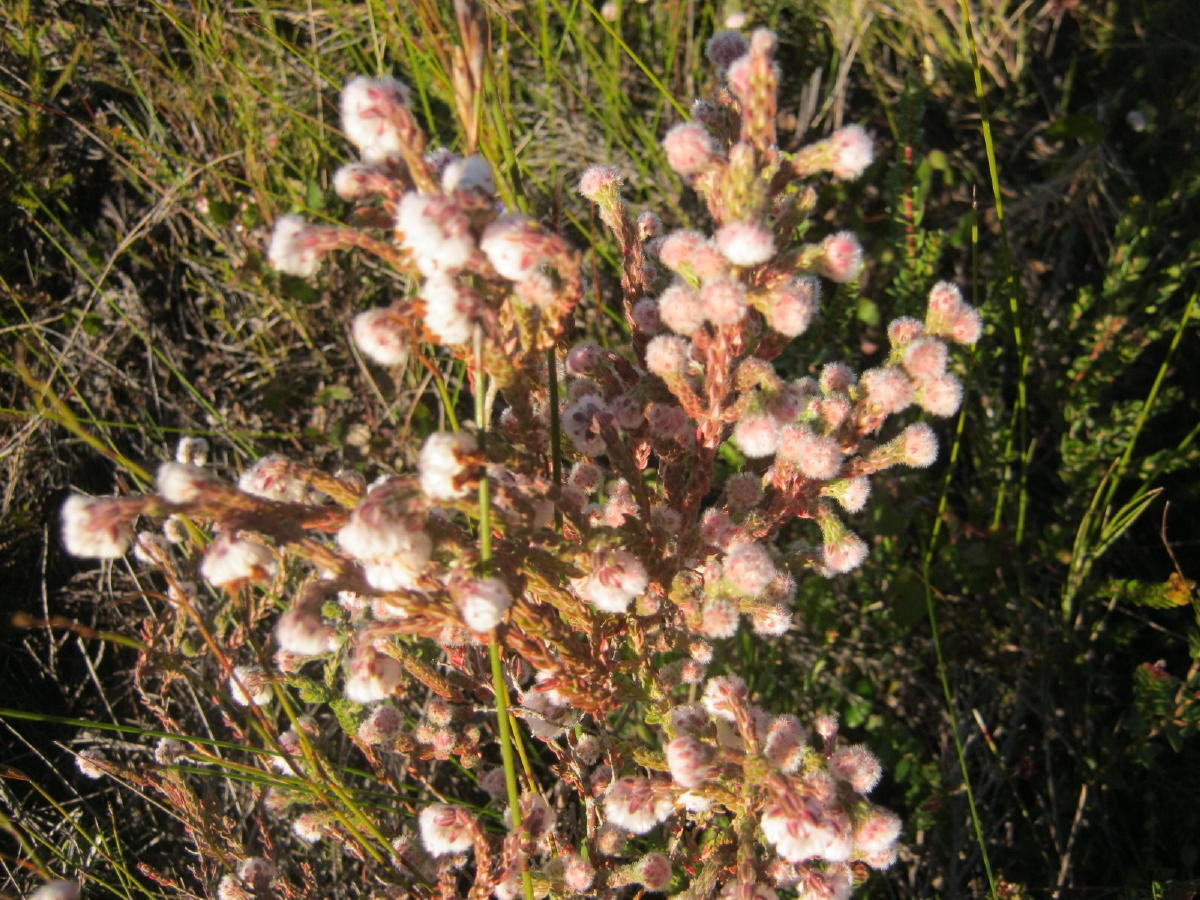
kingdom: Plantae
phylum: Tracheophyta
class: Magnoliopsida
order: Ericales
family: Ericaceae
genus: Erica
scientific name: Erica flaccida
